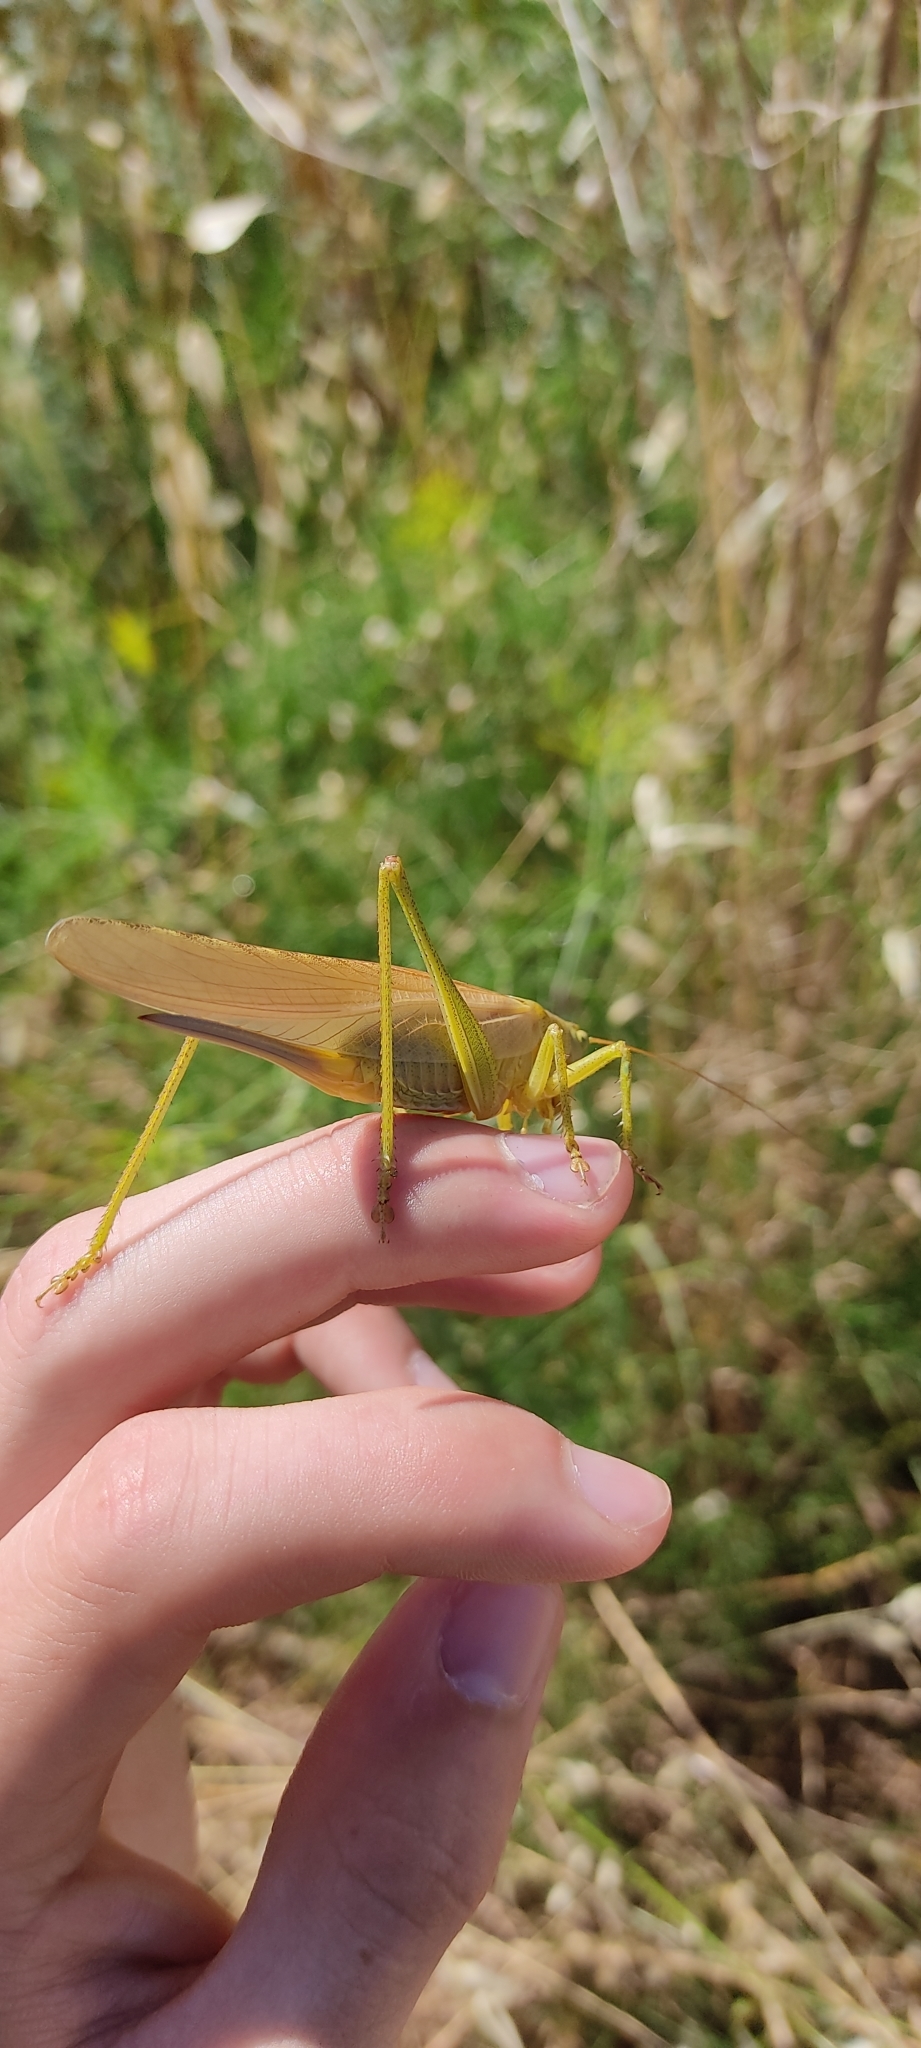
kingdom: Animalia
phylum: Arthropoda
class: Insecta
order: Orthoptera
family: Tettigoniidae
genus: Tettigonia
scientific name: Tettigonia viridissima
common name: Great green bush-cricket
